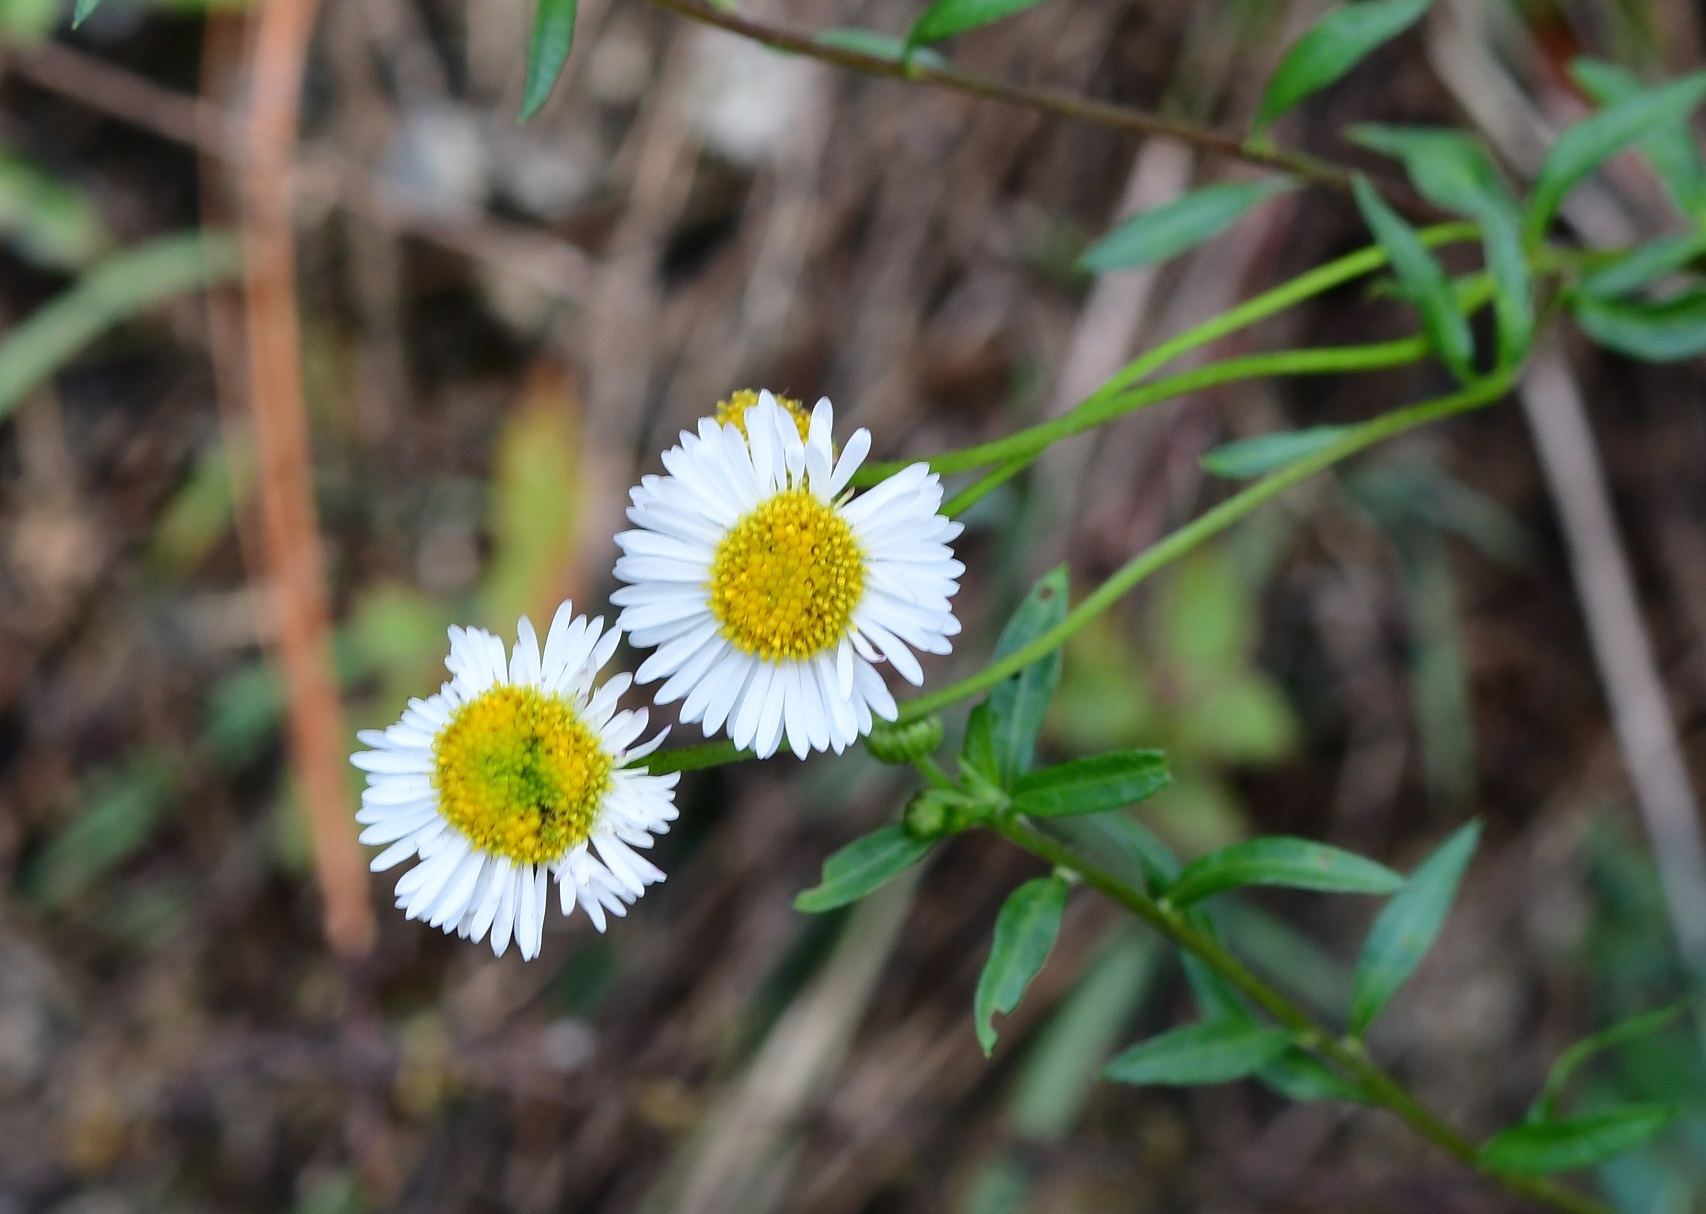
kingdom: Plantae
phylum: Tracheophyta
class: Magnoliopsida
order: Asterales
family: Asteraceae
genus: Erigeron
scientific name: Erigeron karvinskianus
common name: Mexican fleabane
